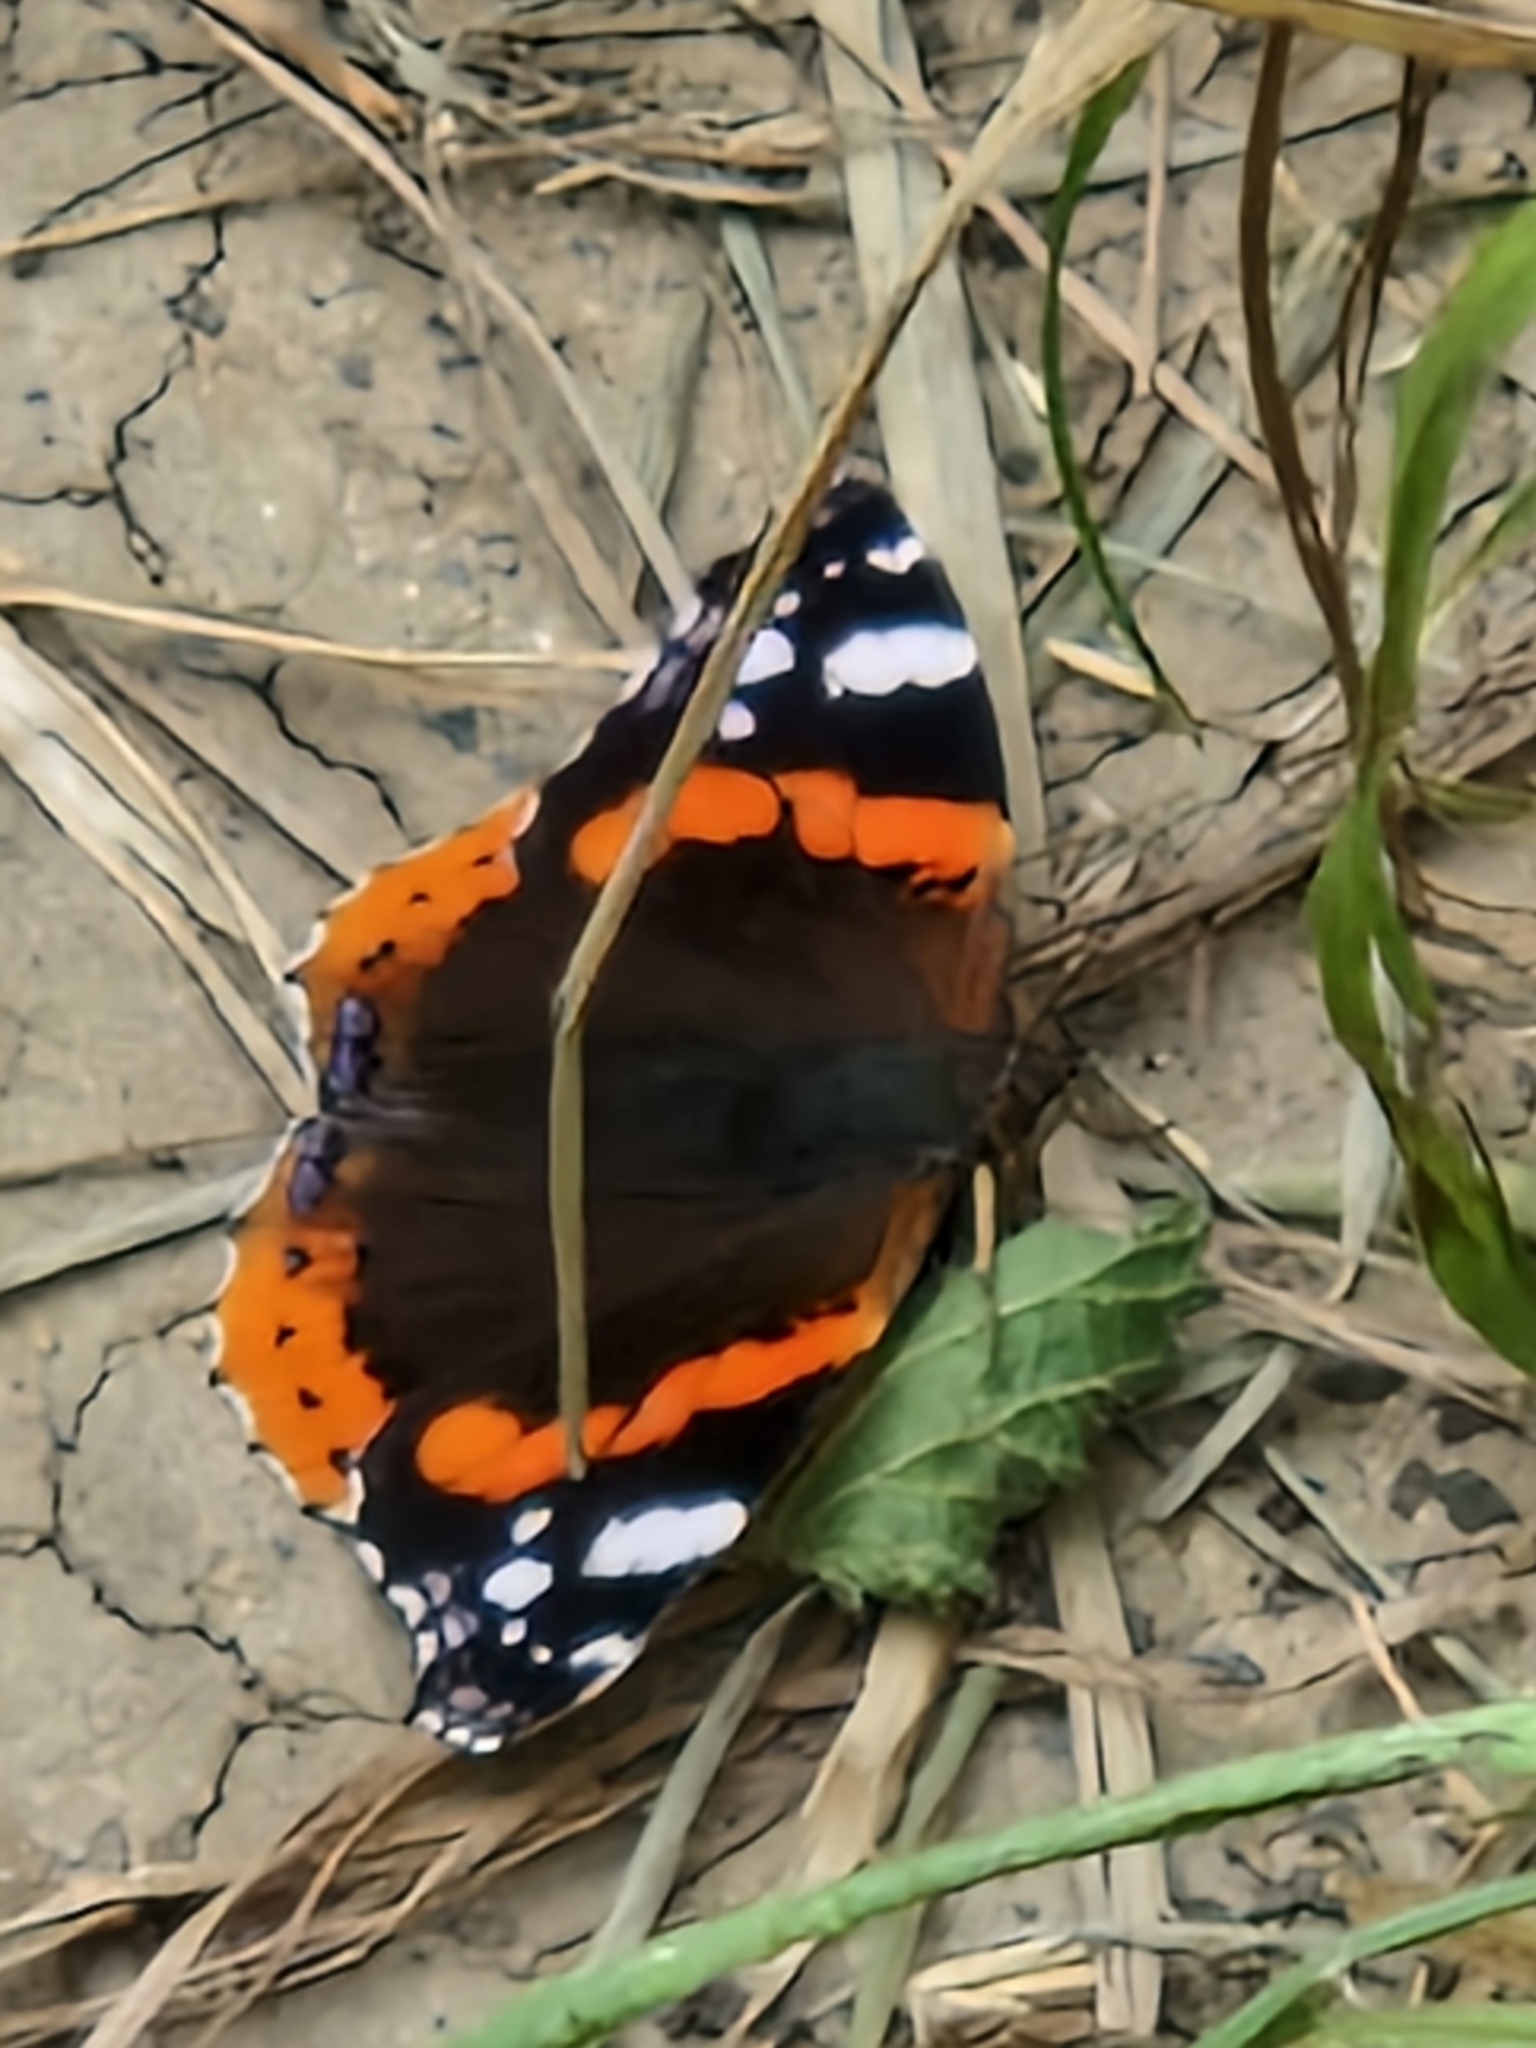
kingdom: Animalia
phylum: Arthropoda
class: Insecta
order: Lepidoptera
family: Nymphalidae
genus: Vanessa
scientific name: Vanessa atalanta
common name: Red admiral
